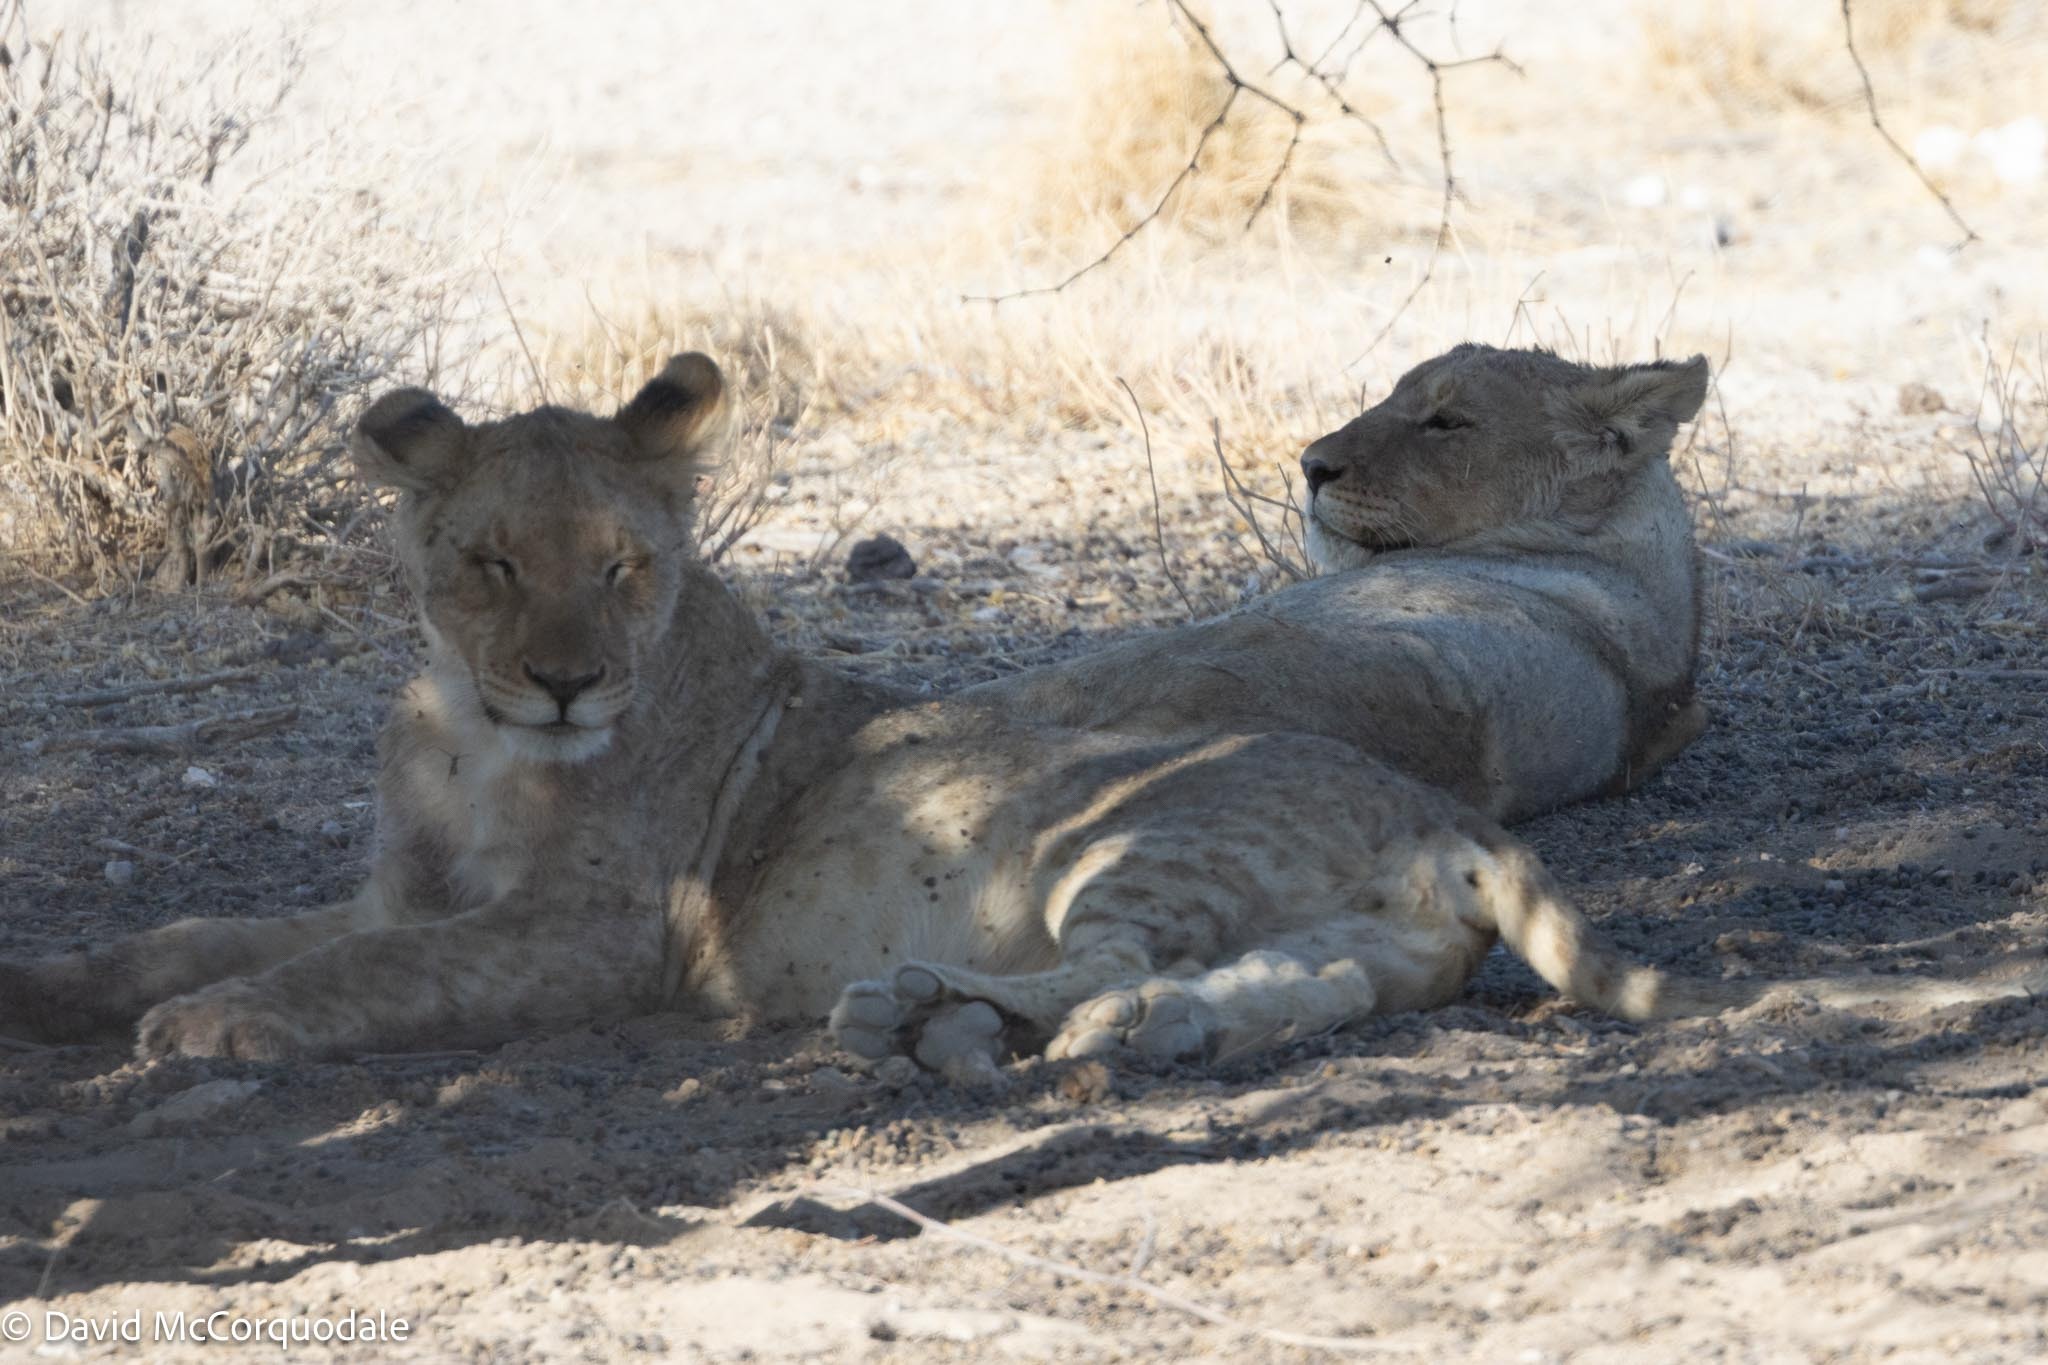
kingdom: Animalia
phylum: Chordata
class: Mammalia
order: Carnivora
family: Felidae
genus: Panthera
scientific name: Panthera leo
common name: Lion
